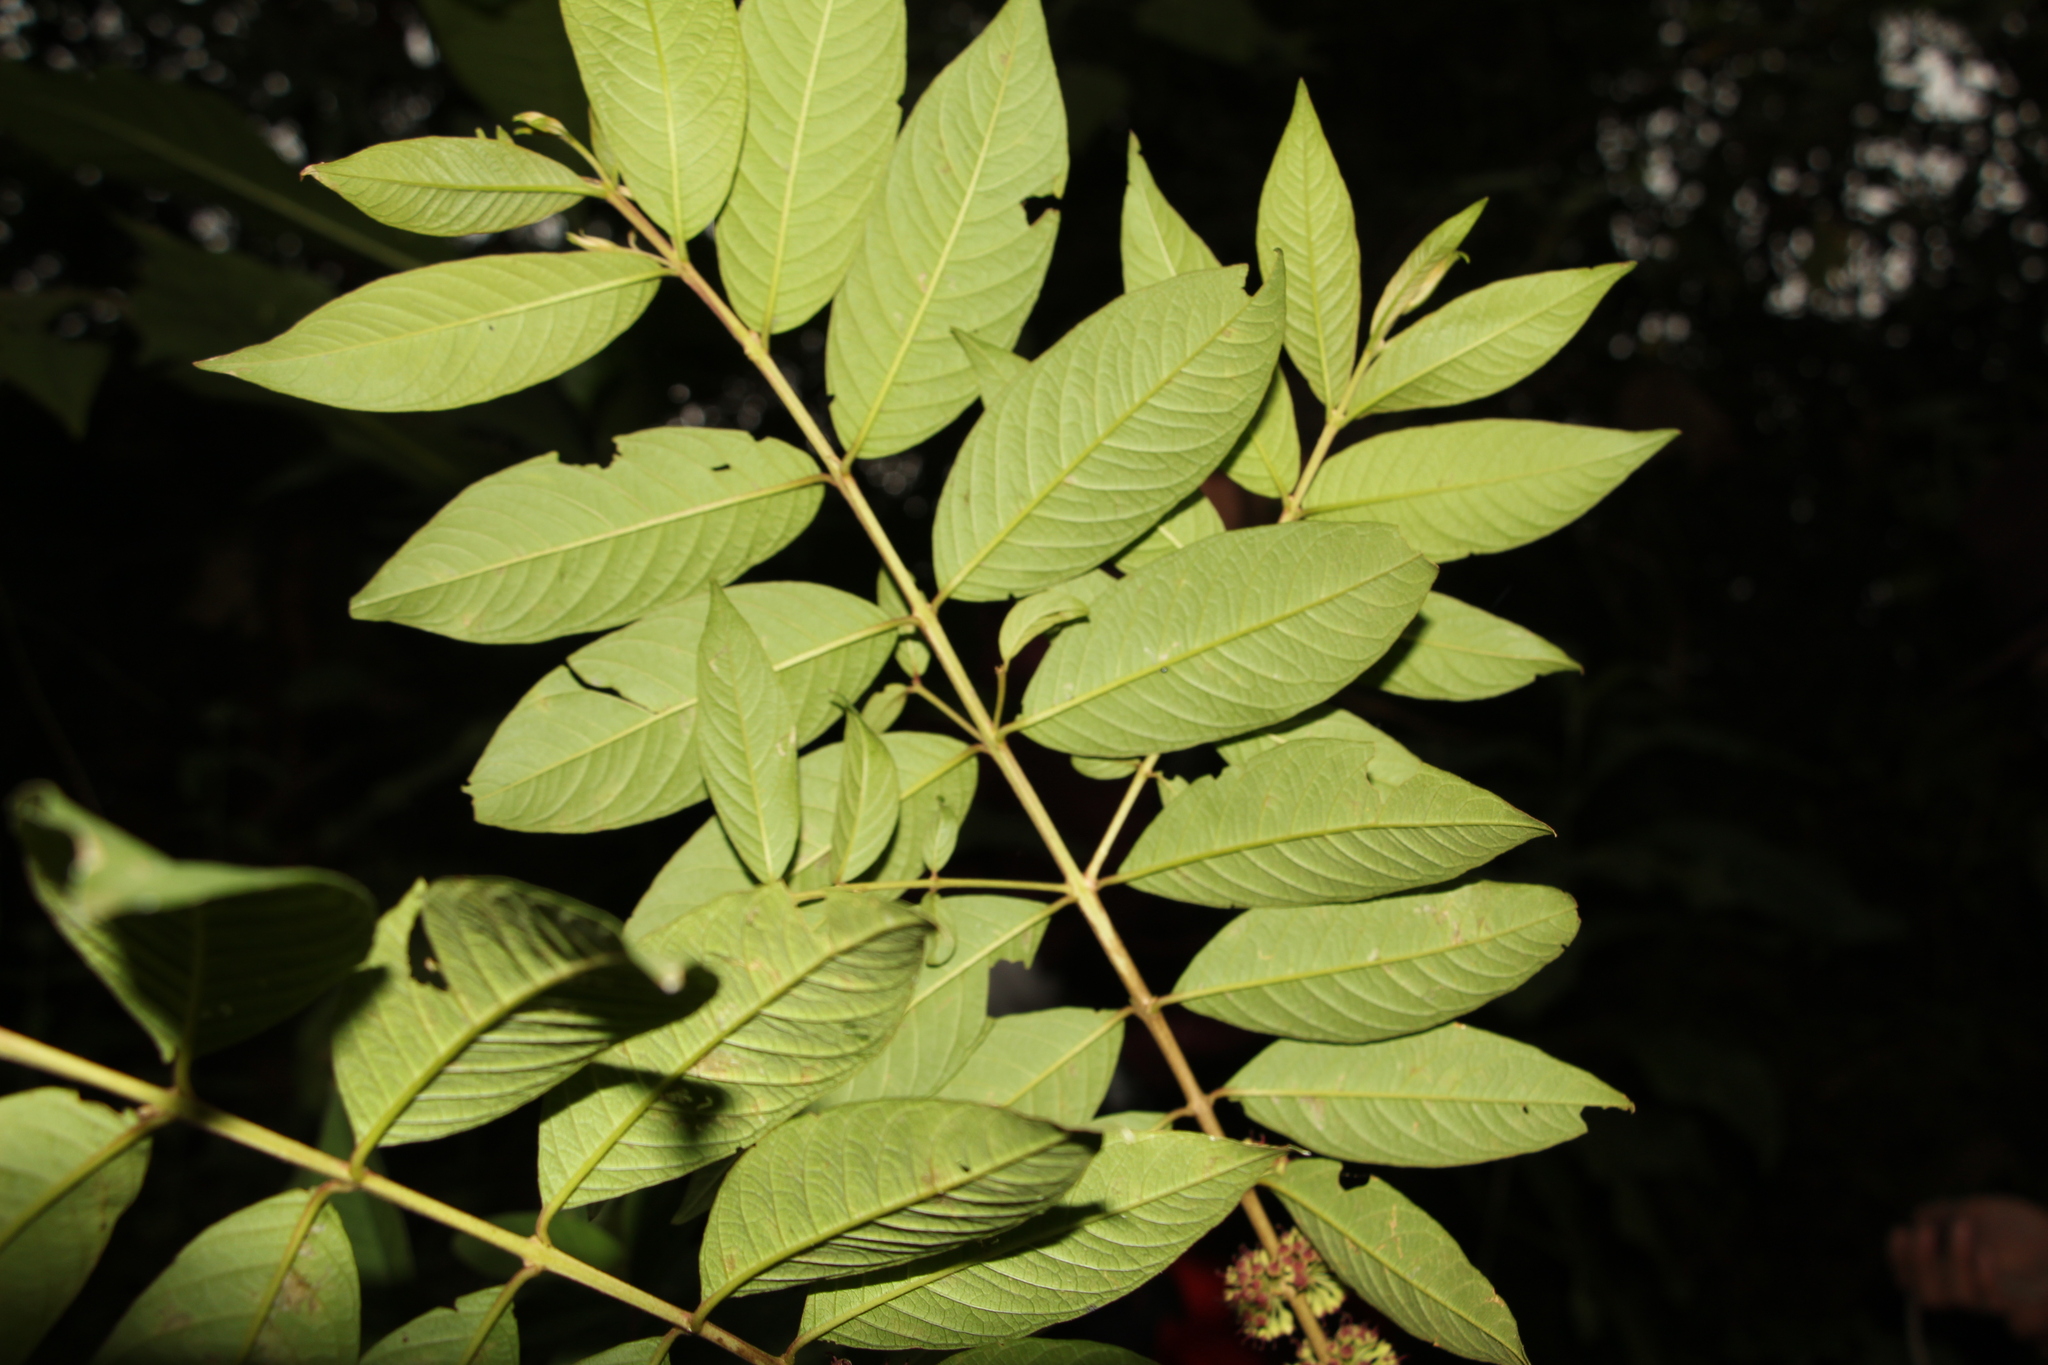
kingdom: Plantae
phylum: Tracheophyta
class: Magnoliopsida
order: Myrtales
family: Lythraceae
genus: Adenaria
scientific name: Adenaria floribunda
